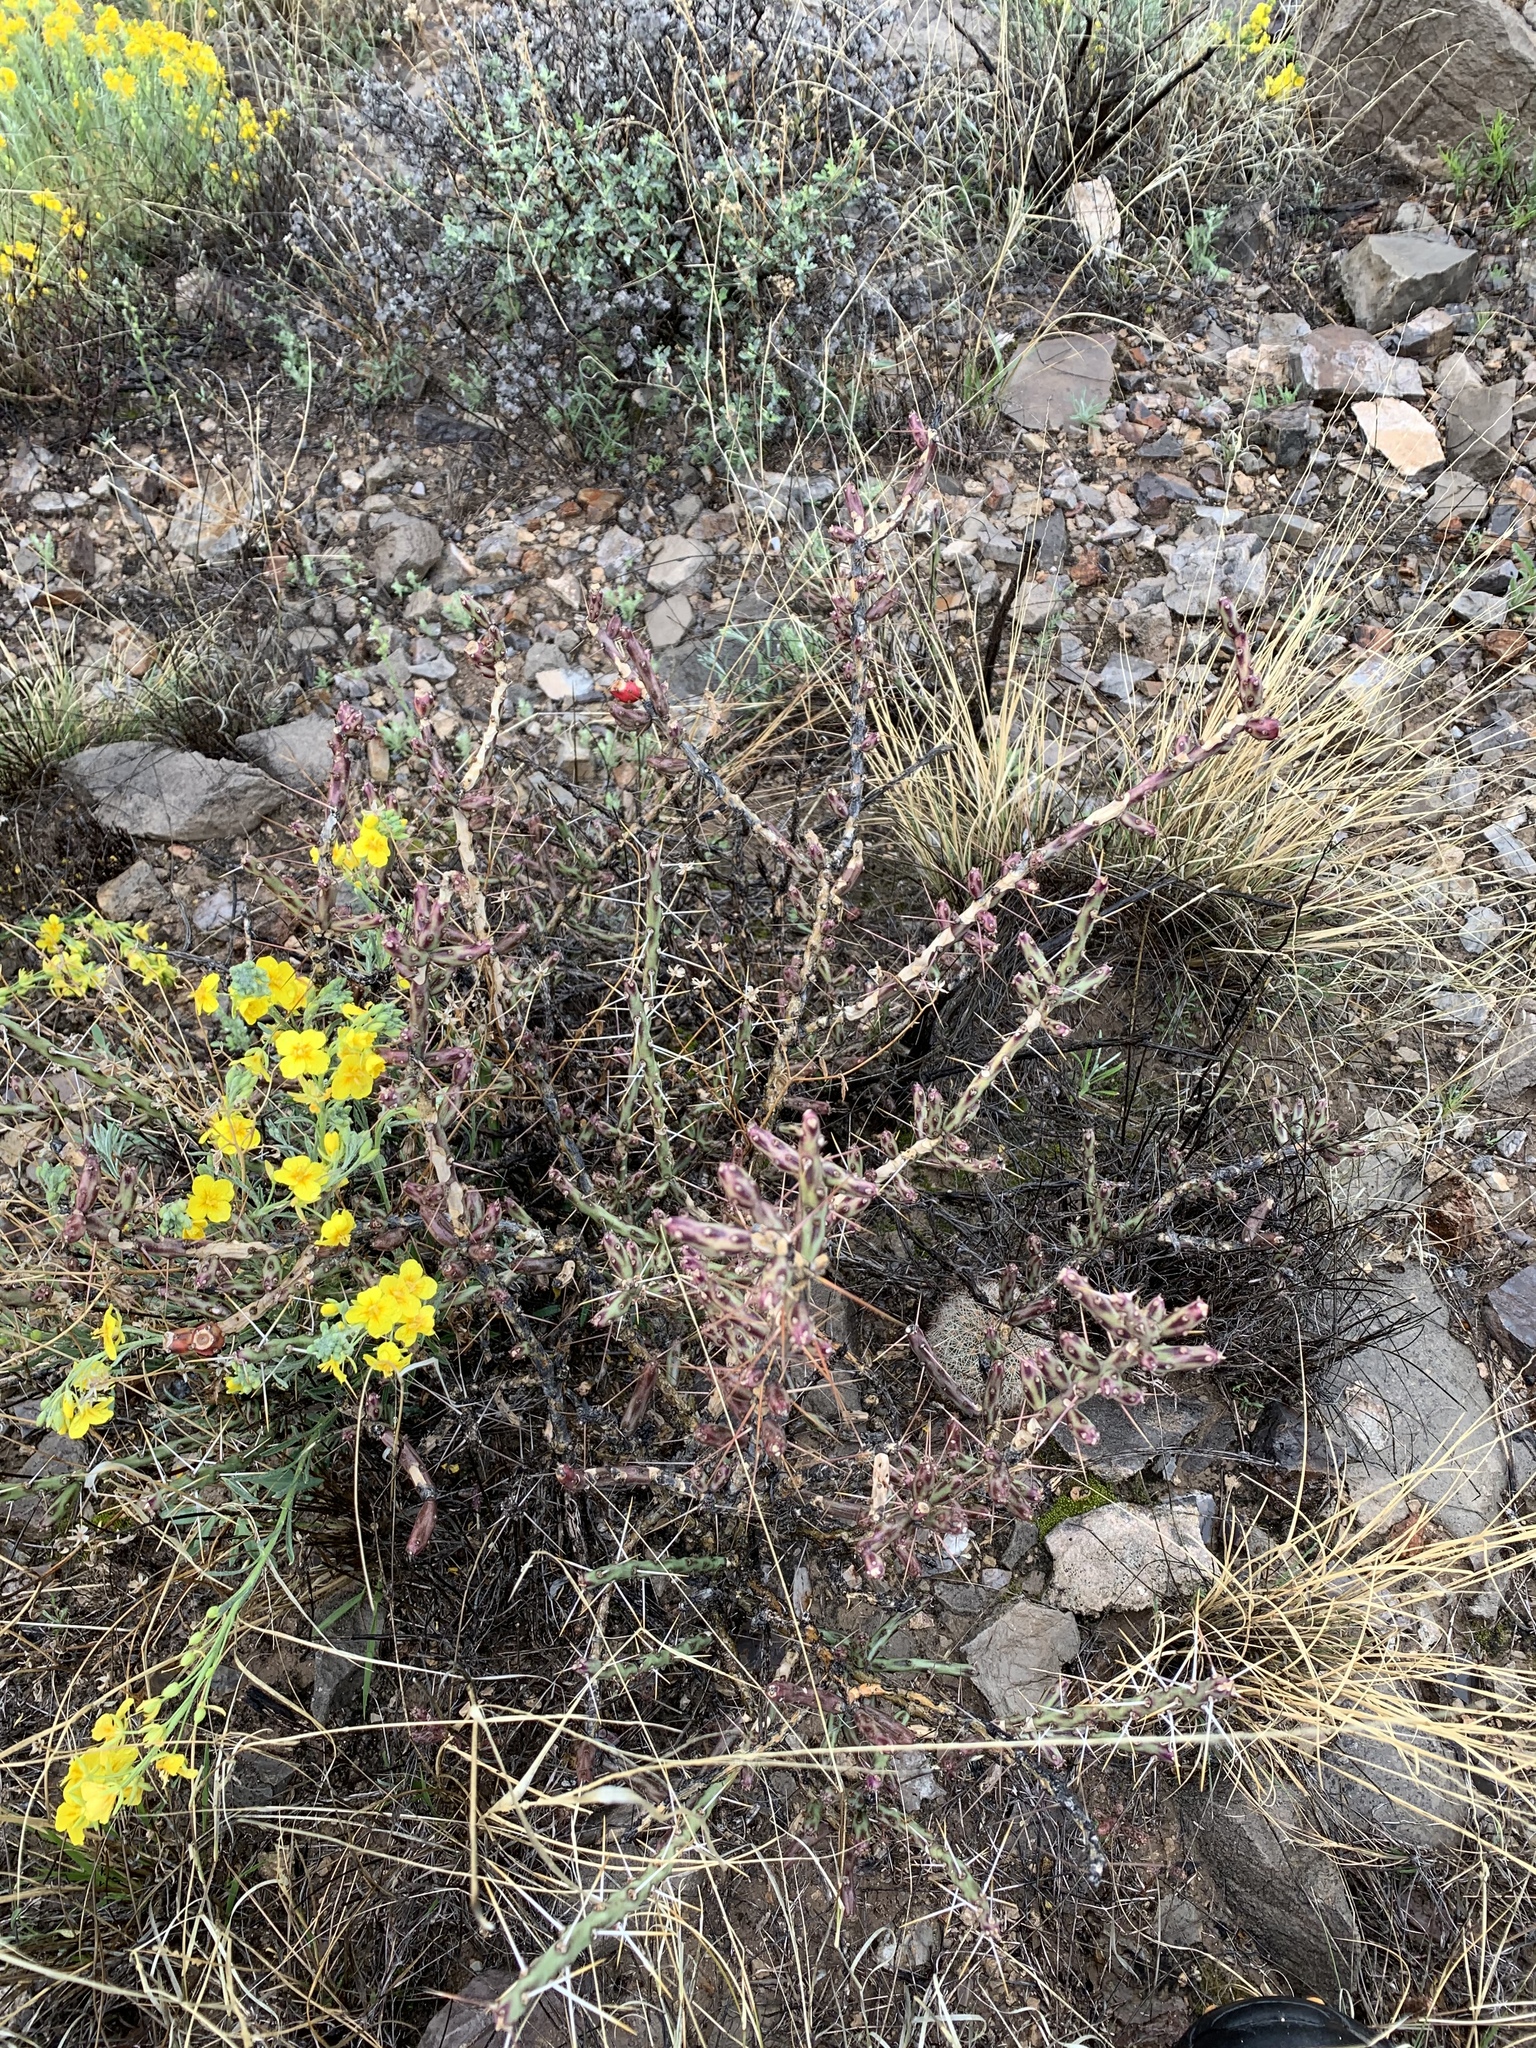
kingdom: Plantae
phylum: Tracheophyta
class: Magnoliopsida
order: Caryophyllales
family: Cactaceae
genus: Cylindropuntia
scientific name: Cylindropuntia leptocaulis
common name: Christmas cactus
